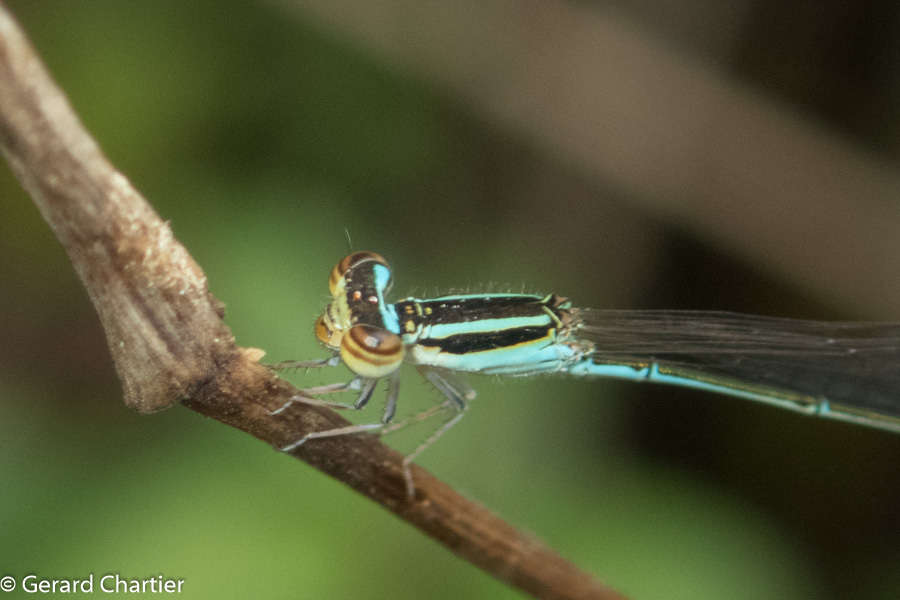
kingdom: Animalia
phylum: Arthropoda
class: Insecta
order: Odonata
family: Coenagrionidae
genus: Aciagrion
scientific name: Aciagrion borneense
